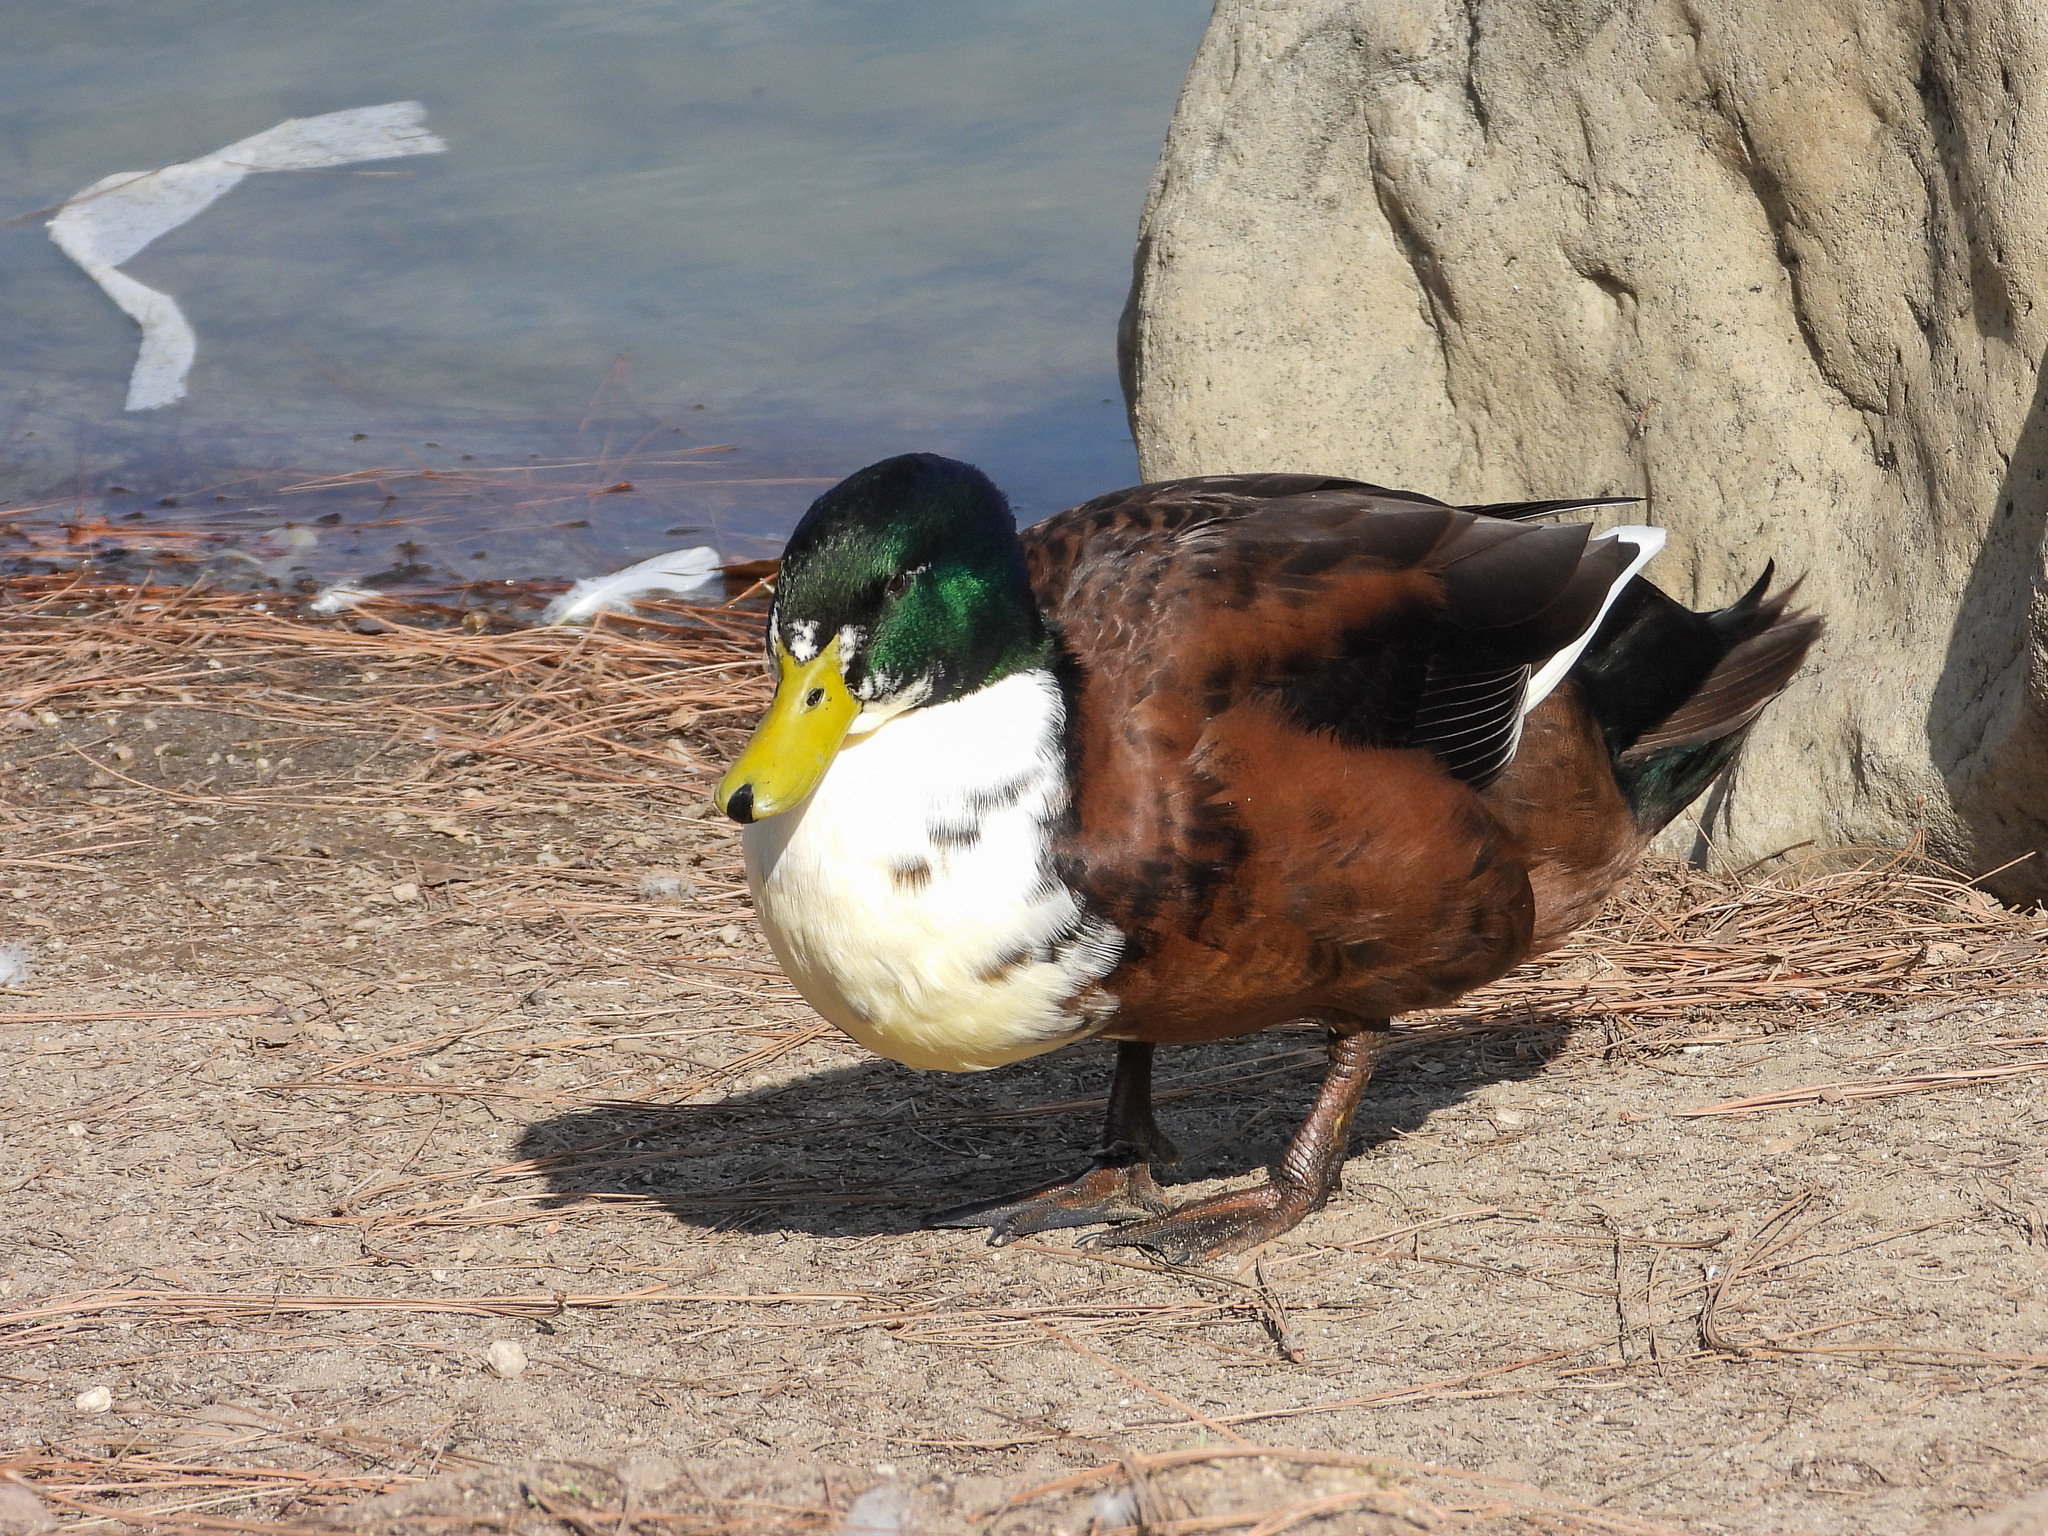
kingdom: Animalia
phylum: Chordata
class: Aves
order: Anseriformes
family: Anatidae
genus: Anas
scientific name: Anas platyrhynchos
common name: Mallard
